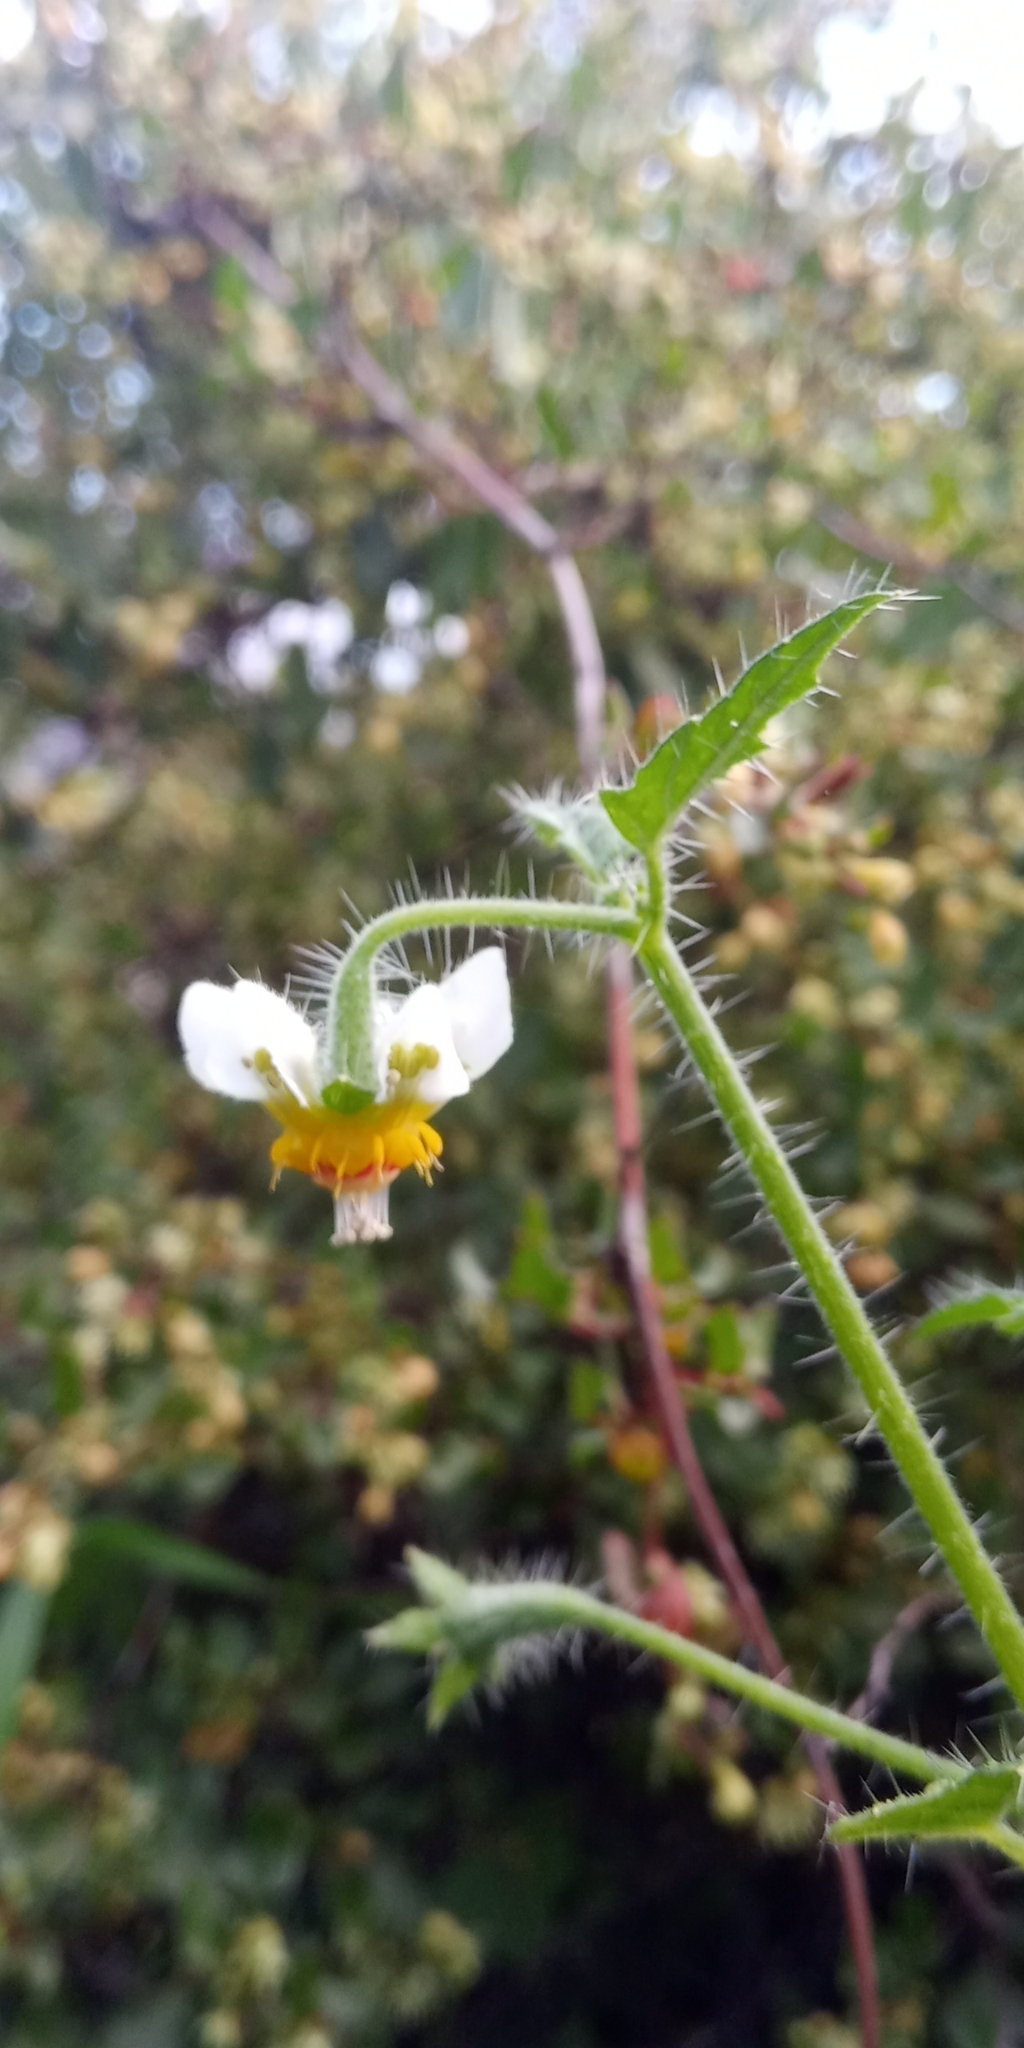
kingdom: Plantae
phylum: Tracheophyta
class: Magnoliopsida
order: Cornales
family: Loasaceae
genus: Loasa
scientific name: Loasa triloba
